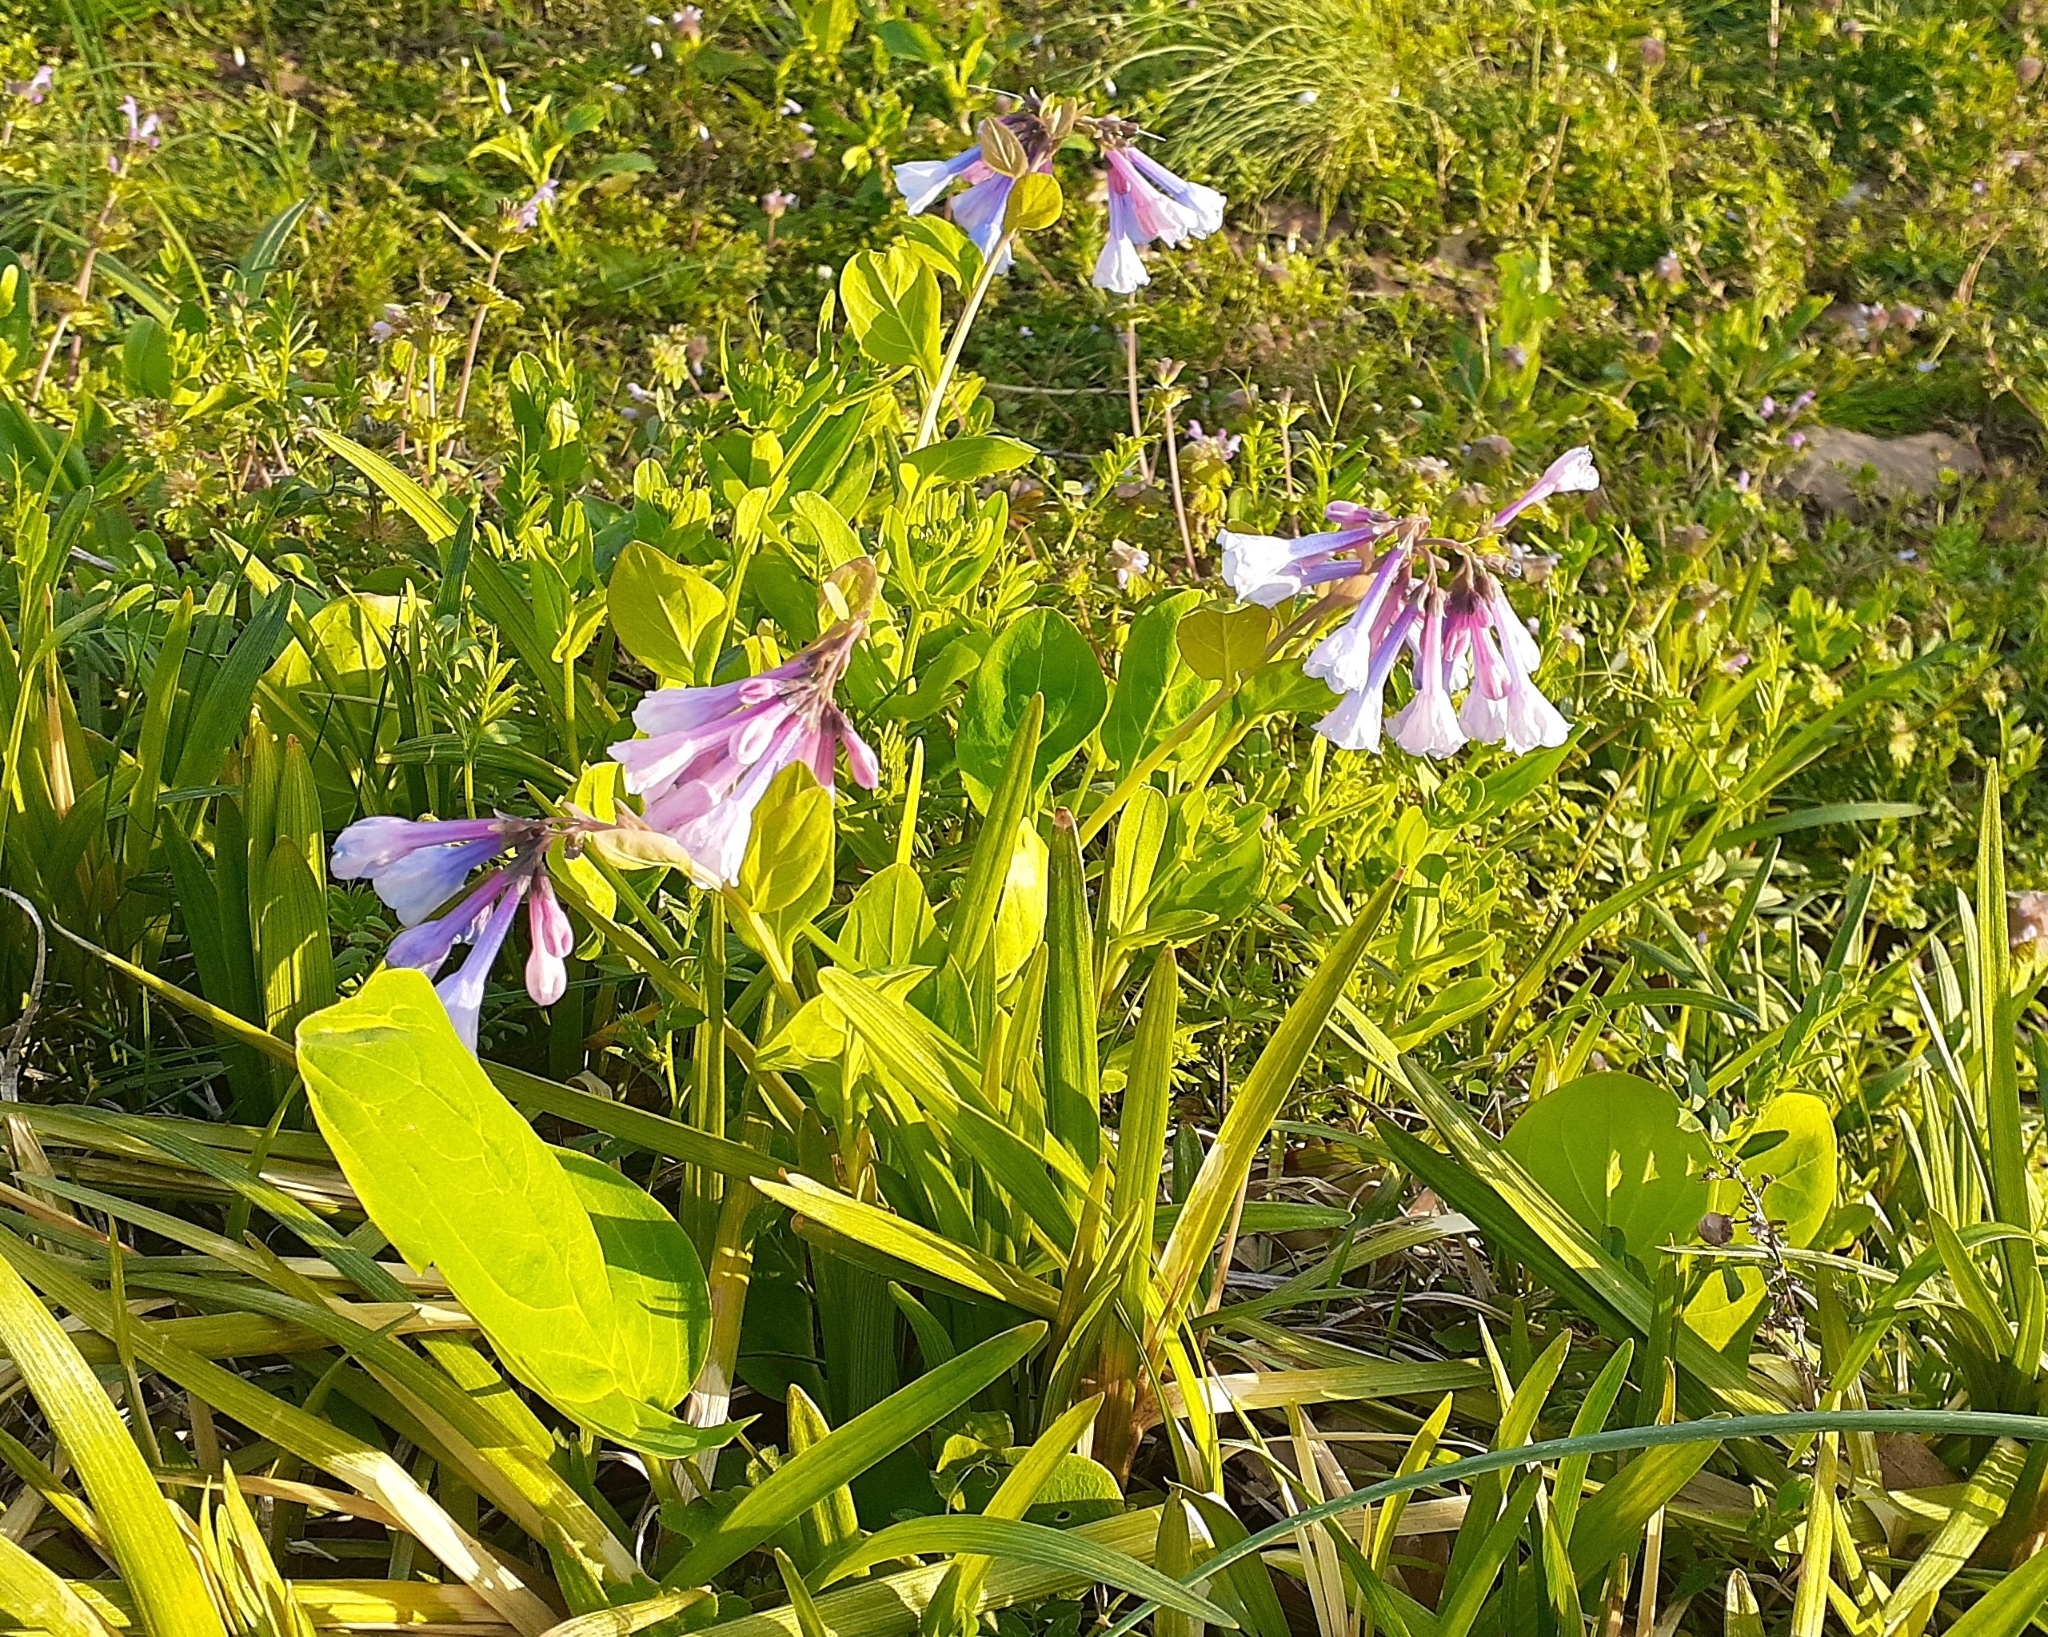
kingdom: Plantae
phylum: Tracheophyta
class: Magnoliopsida
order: Boraginales
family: Boraginaceae
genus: Mertensia
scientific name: Mertensia virginica
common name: Virginia bluebells
